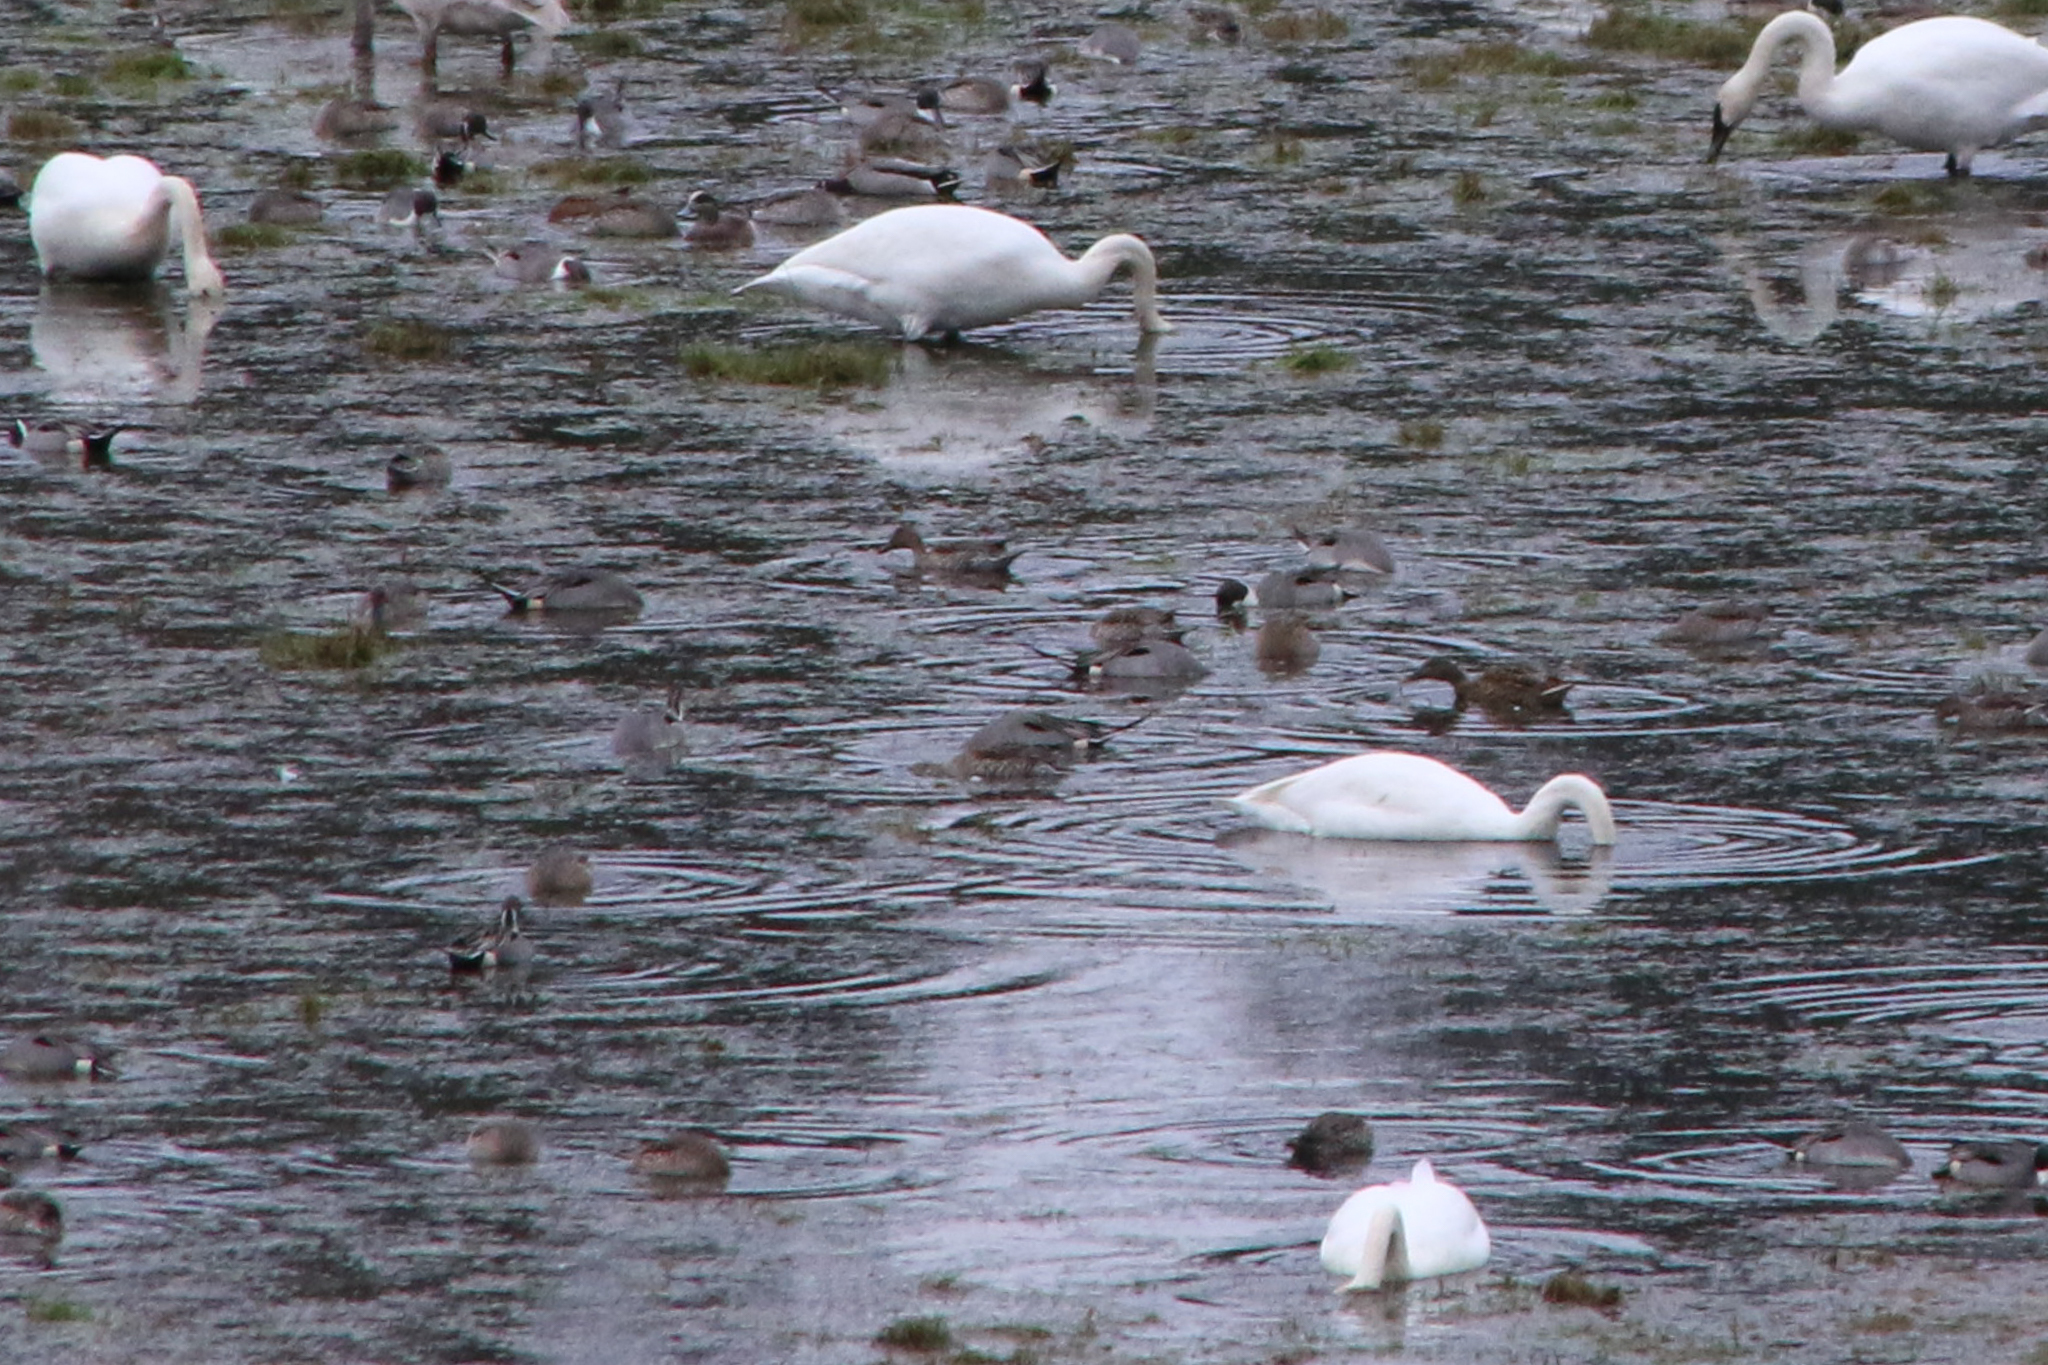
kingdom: Animalia
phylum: Chordata
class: Aves
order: Anseriformes
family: Anatidae
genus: Anas
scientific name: Anas acuta
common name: Northern pintail
